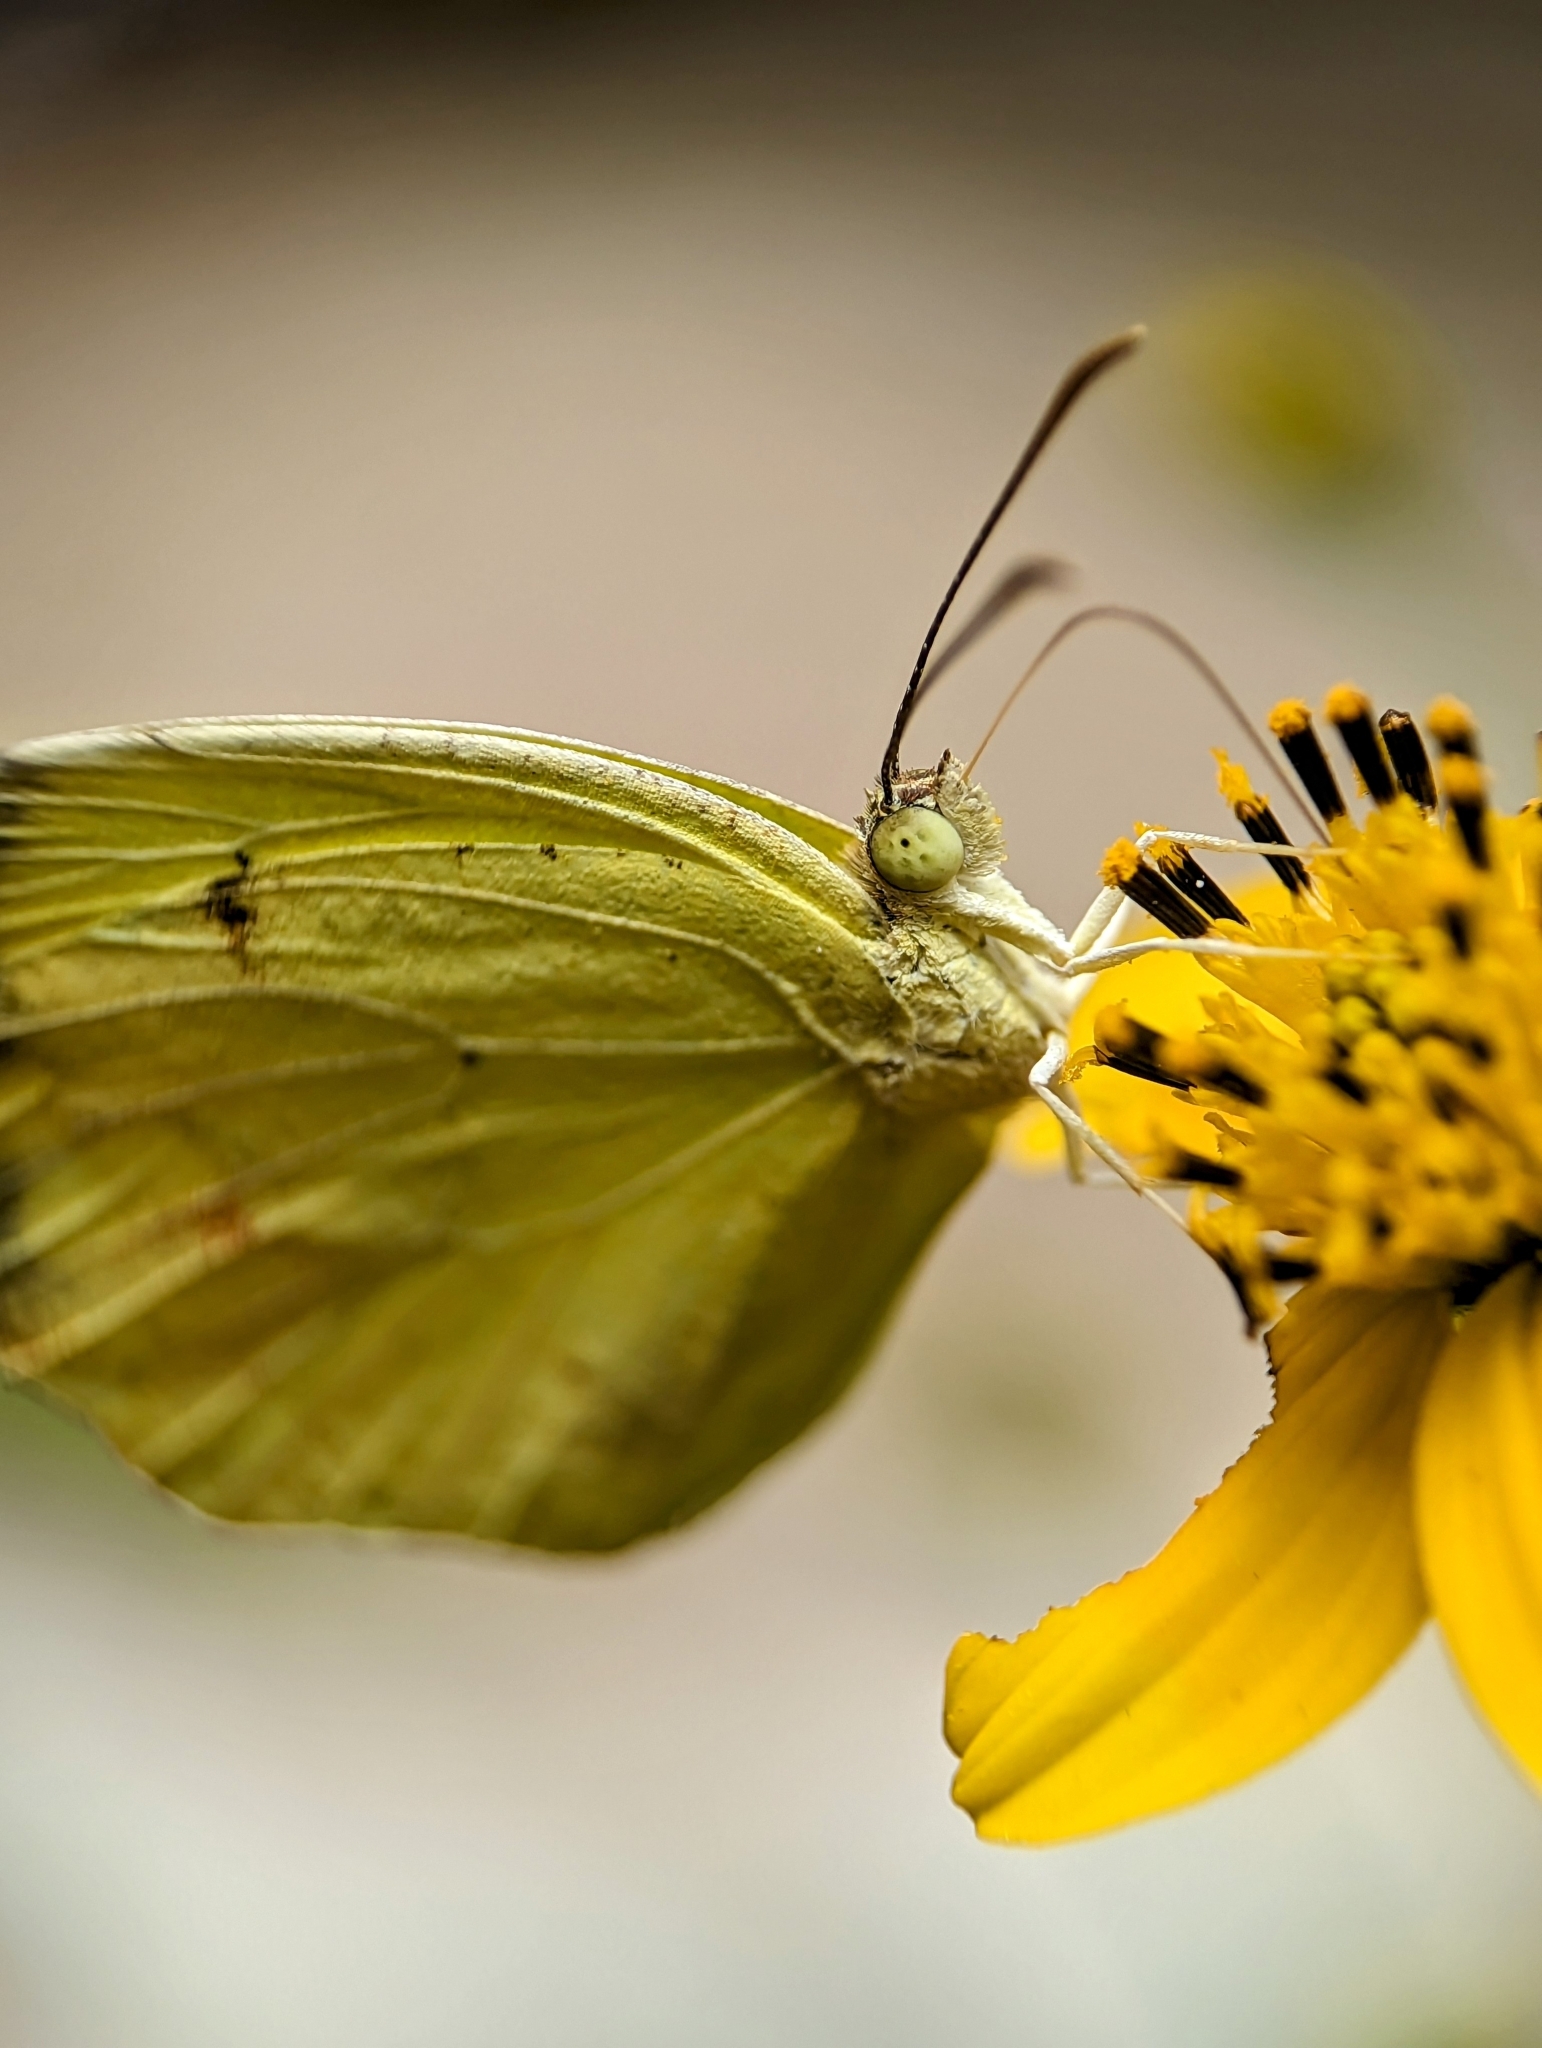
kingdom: Animalia
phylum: Arthropoda
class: Insecta
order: Lepidoptera
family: Pieridae
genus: Abaeis
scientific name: Abaeis boisduvaliana
